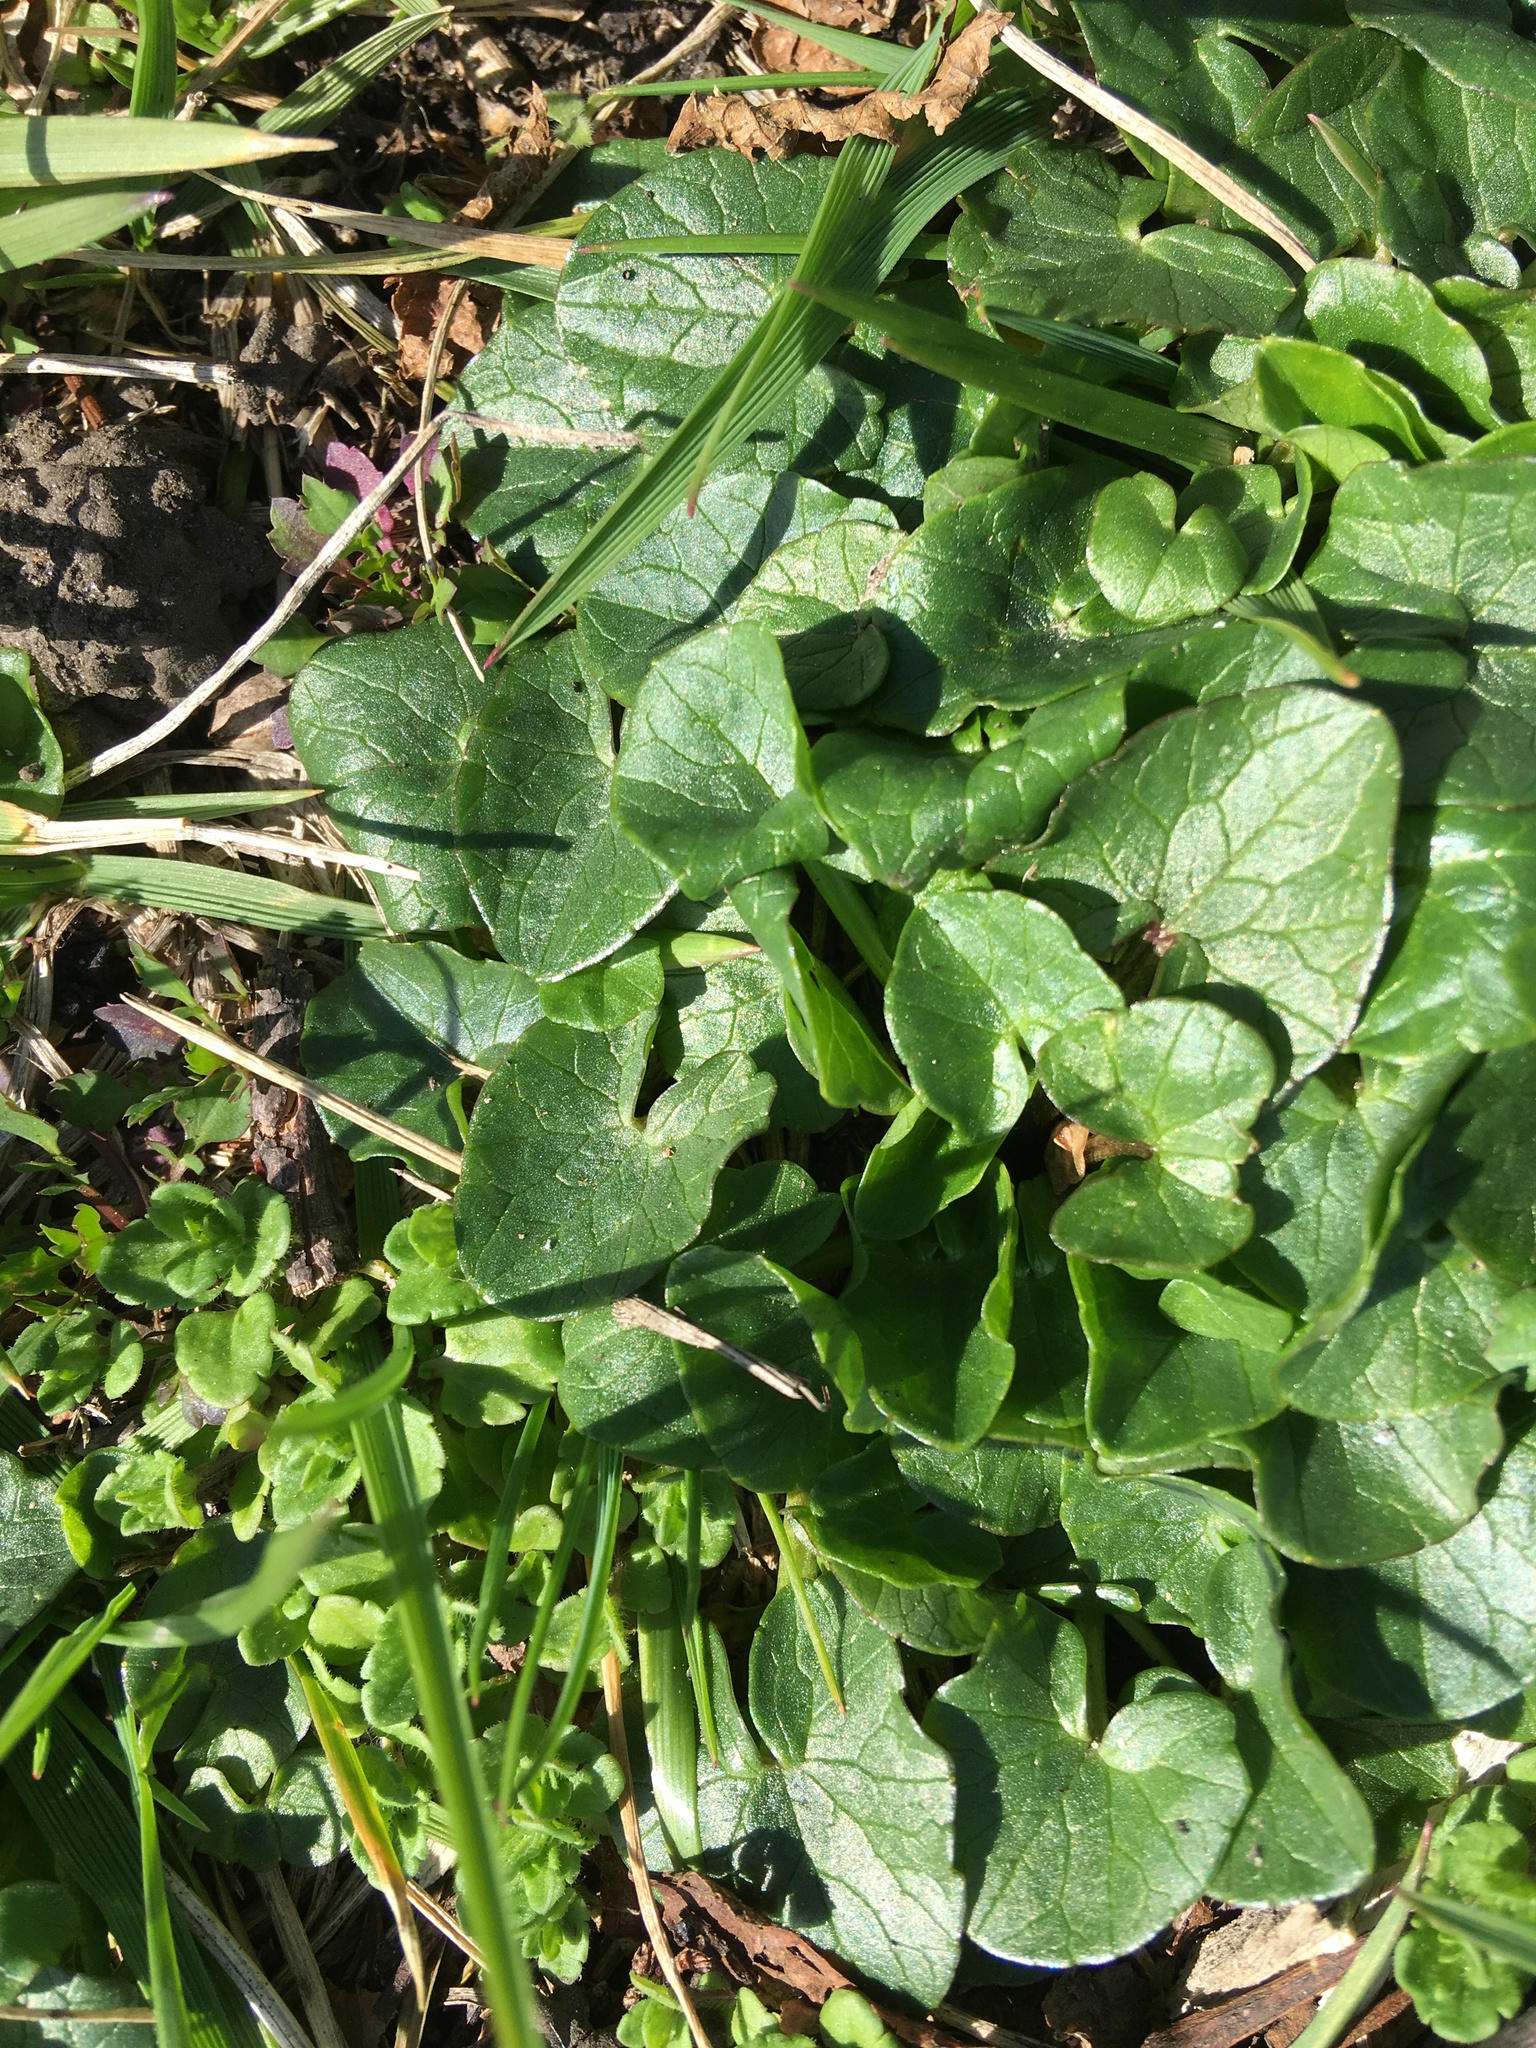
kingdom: Plantae
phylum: Tracheophyta
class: Magnoliopsida
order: Ranunculales
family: Ranunculaceae
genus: Ficaria
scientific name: Ficaria verna
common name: Lesser celandine
